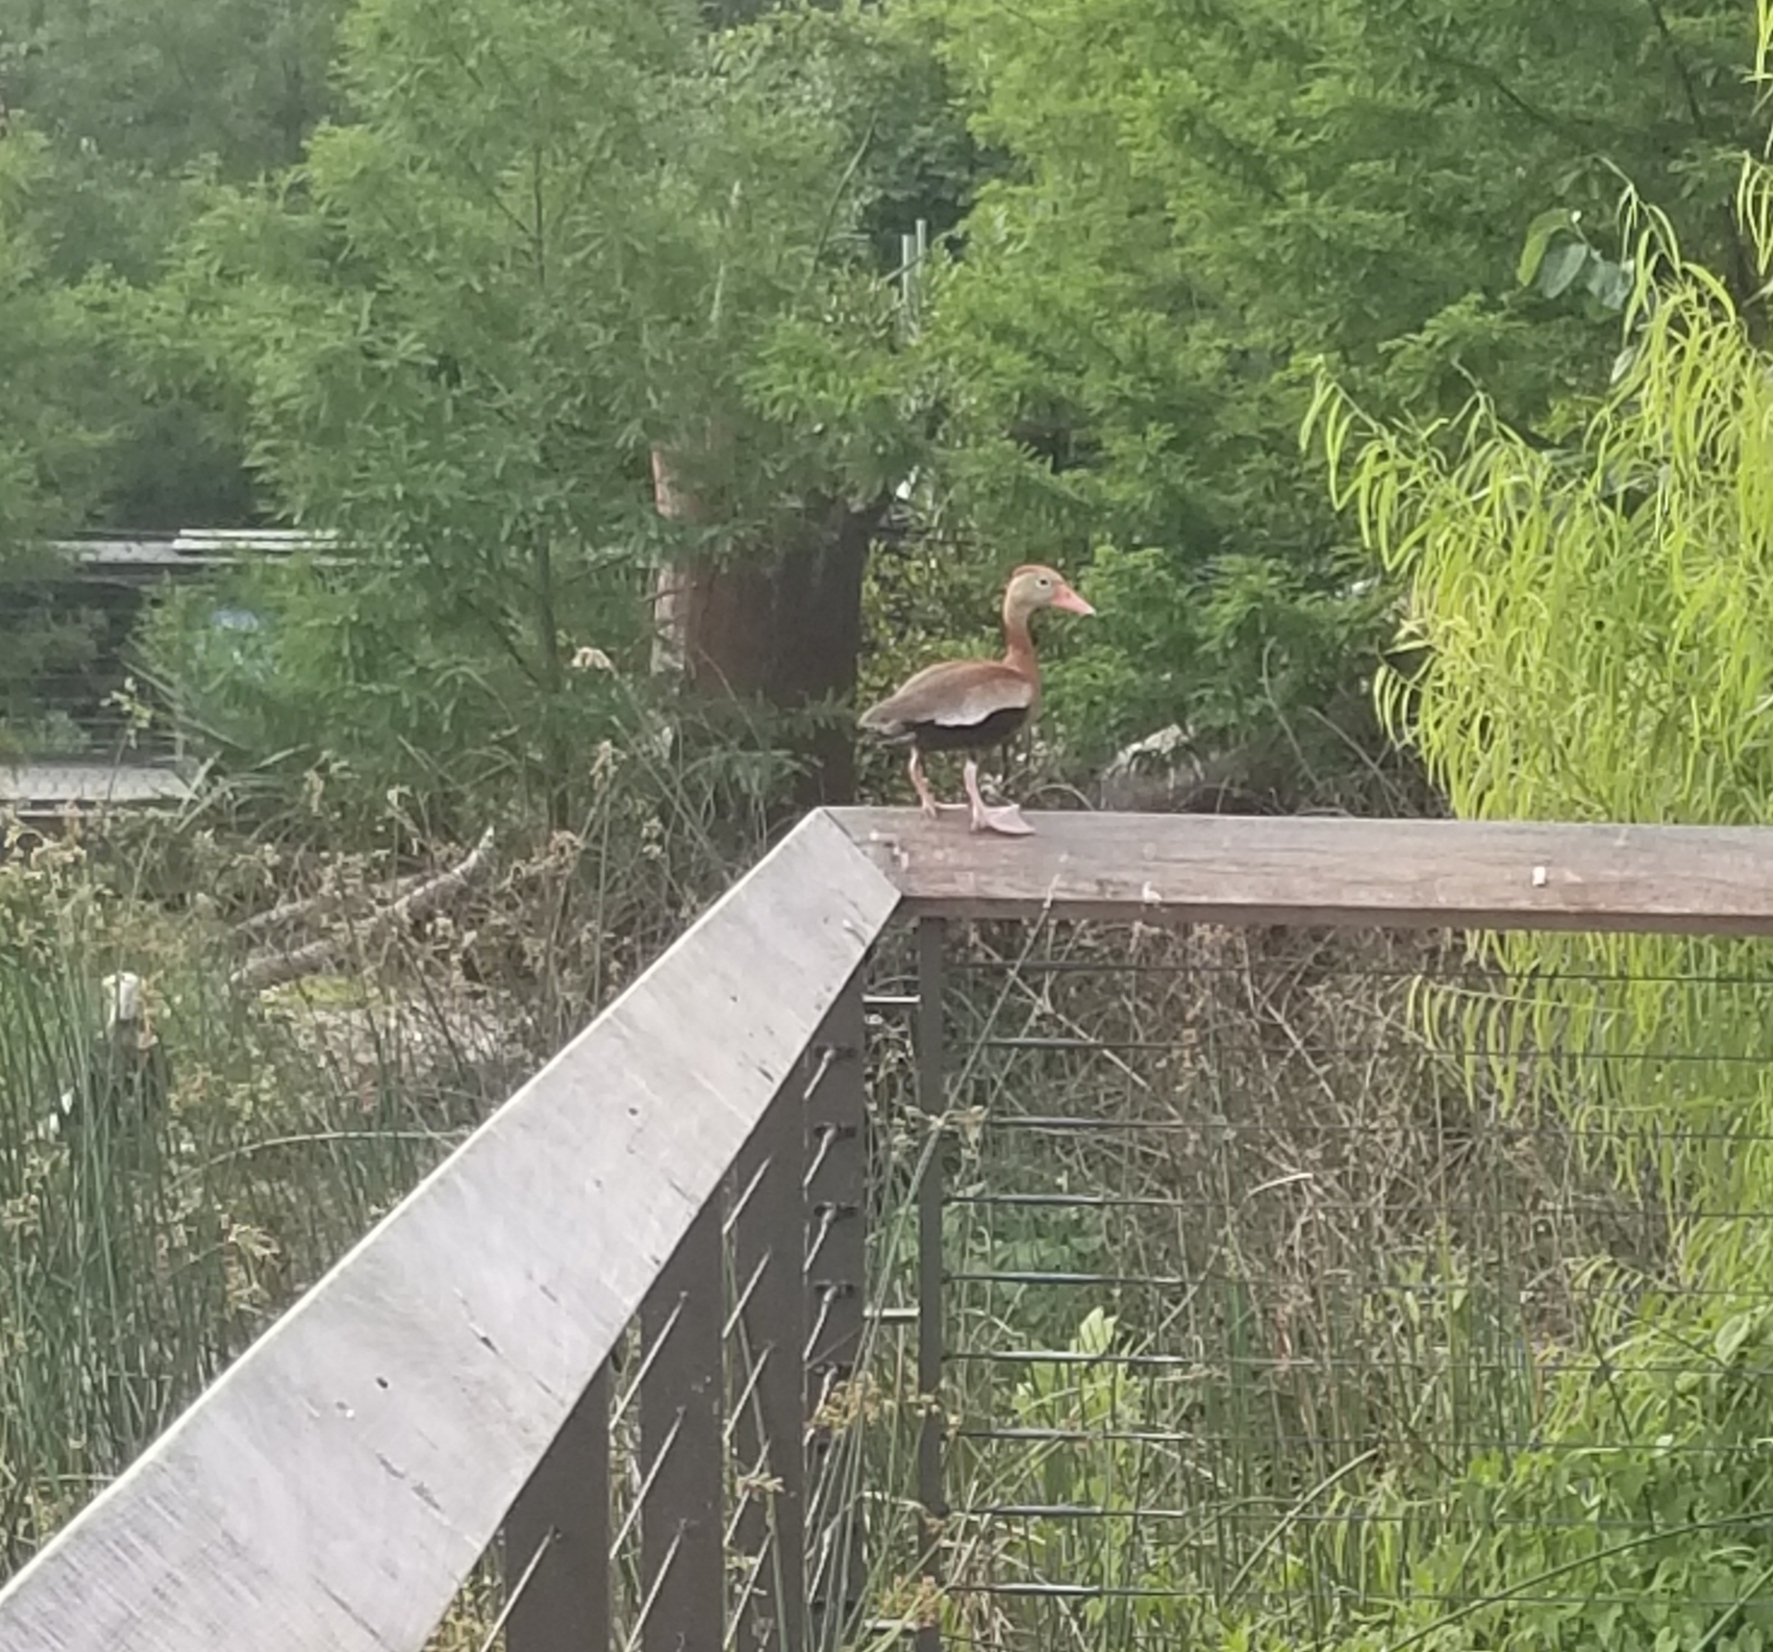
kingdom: Animalia
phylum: Chordata
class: Aves
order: Anseriformes
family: Anatidae
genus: Dendrocygna
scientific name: Dendrocygna autumnalis
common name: Black-bellied whistling duck
